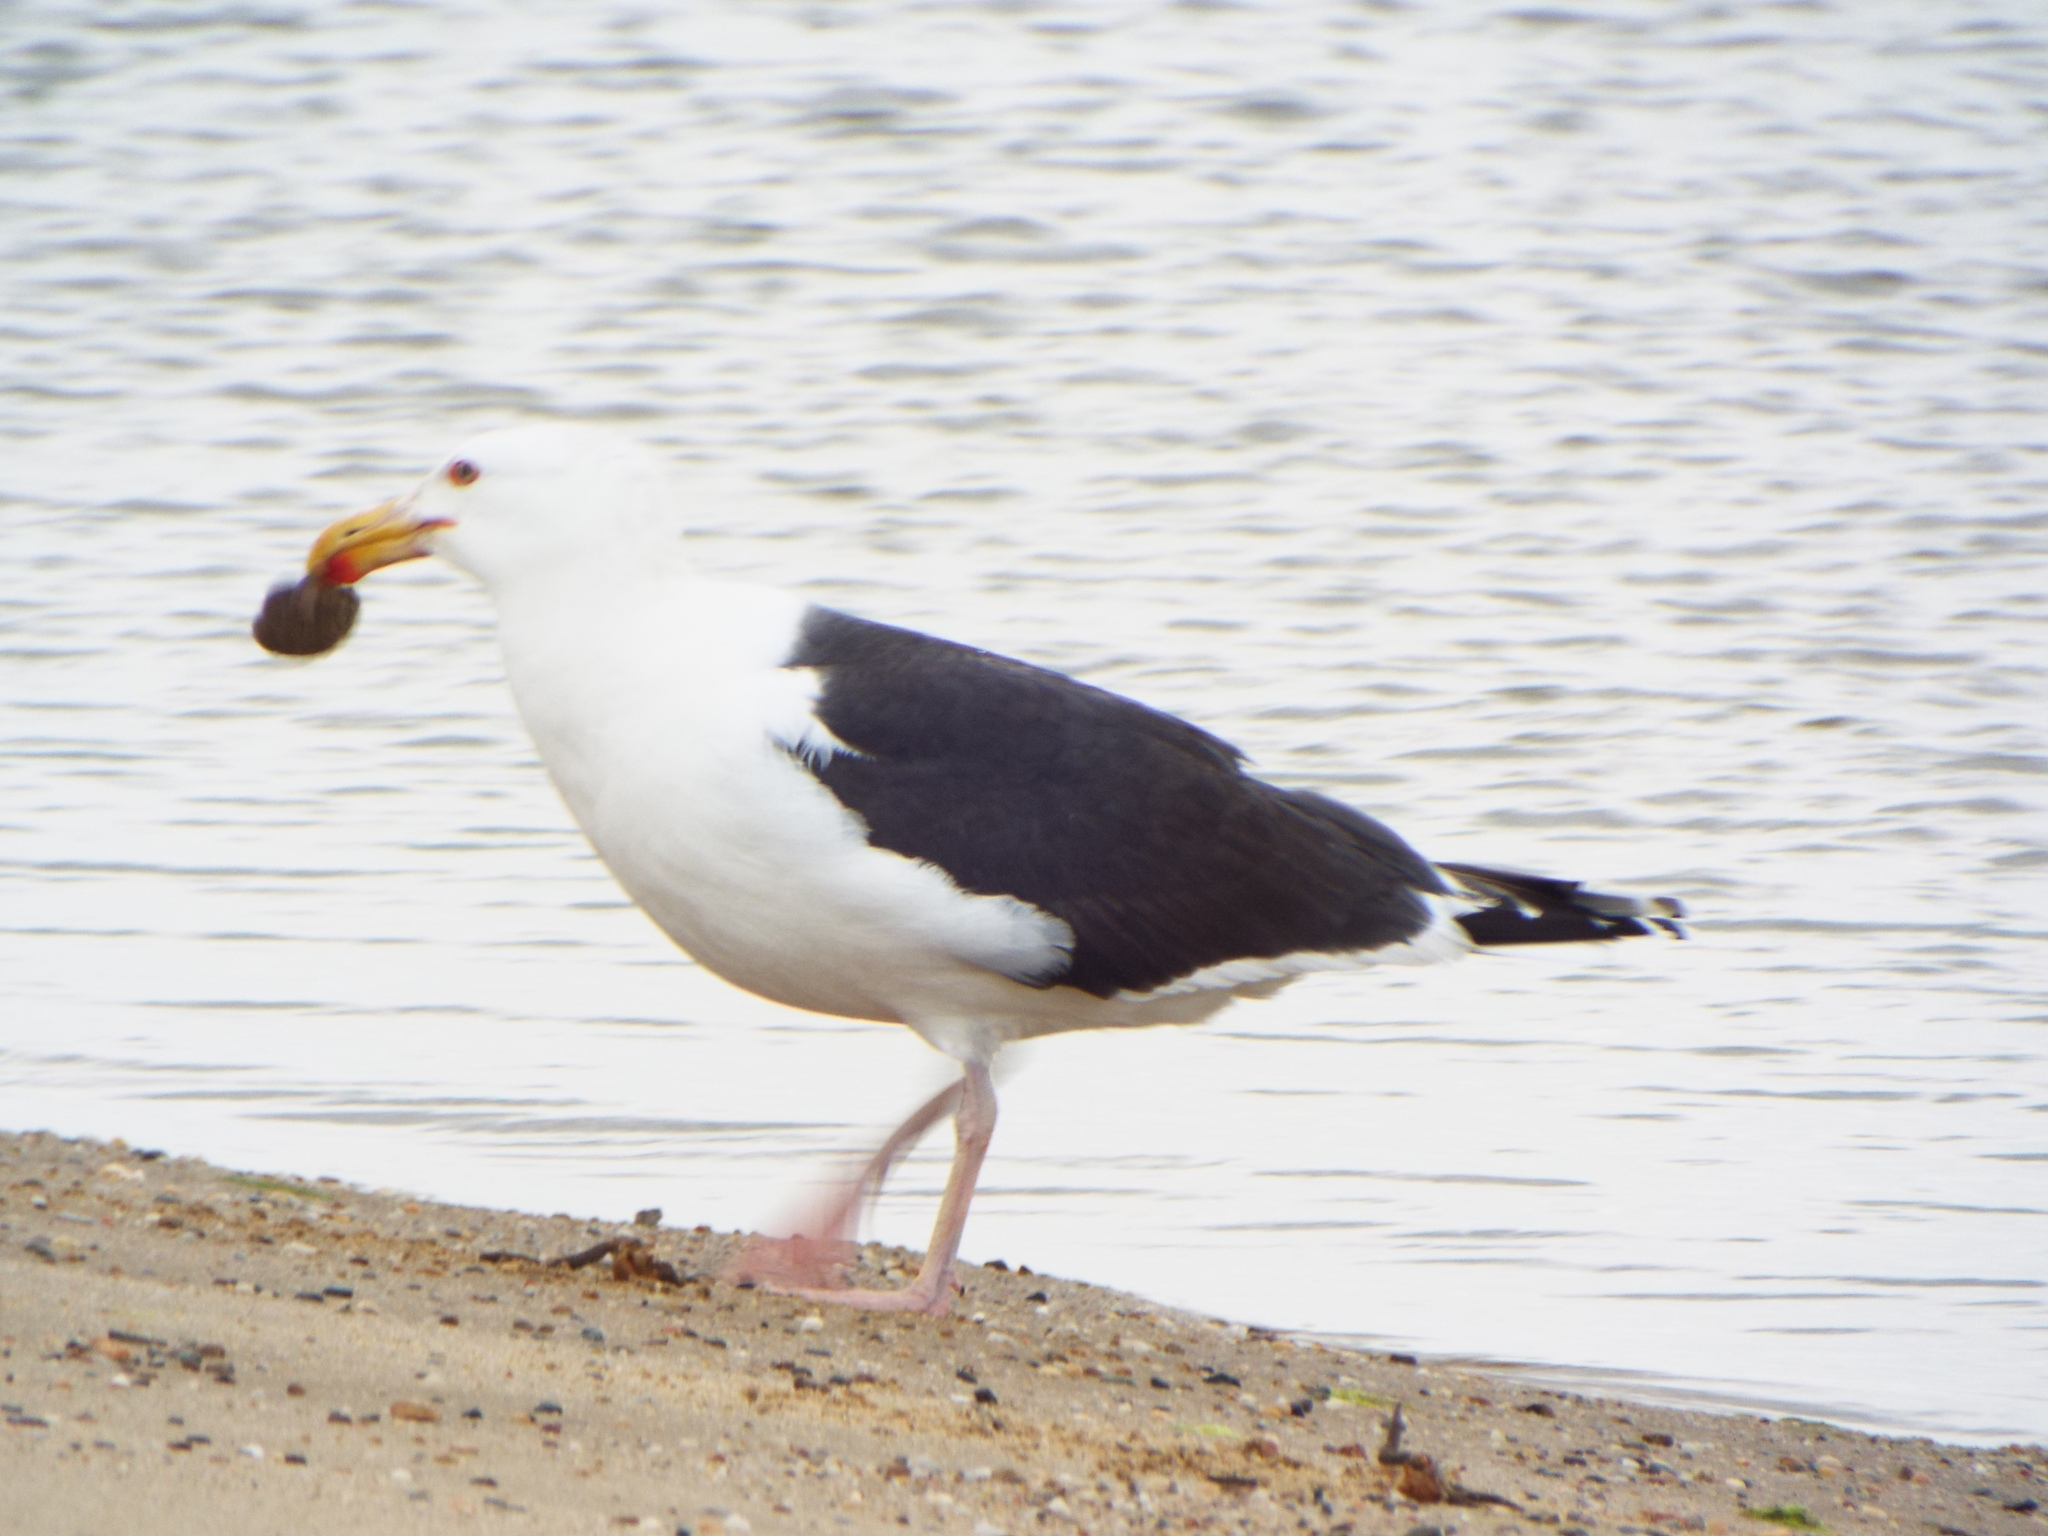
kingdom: Animalia
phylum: Chordata
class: Aves
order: Charadriiformes
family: Laridae
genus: Larus
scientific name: Larus marinus
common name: Great black-backed gull
